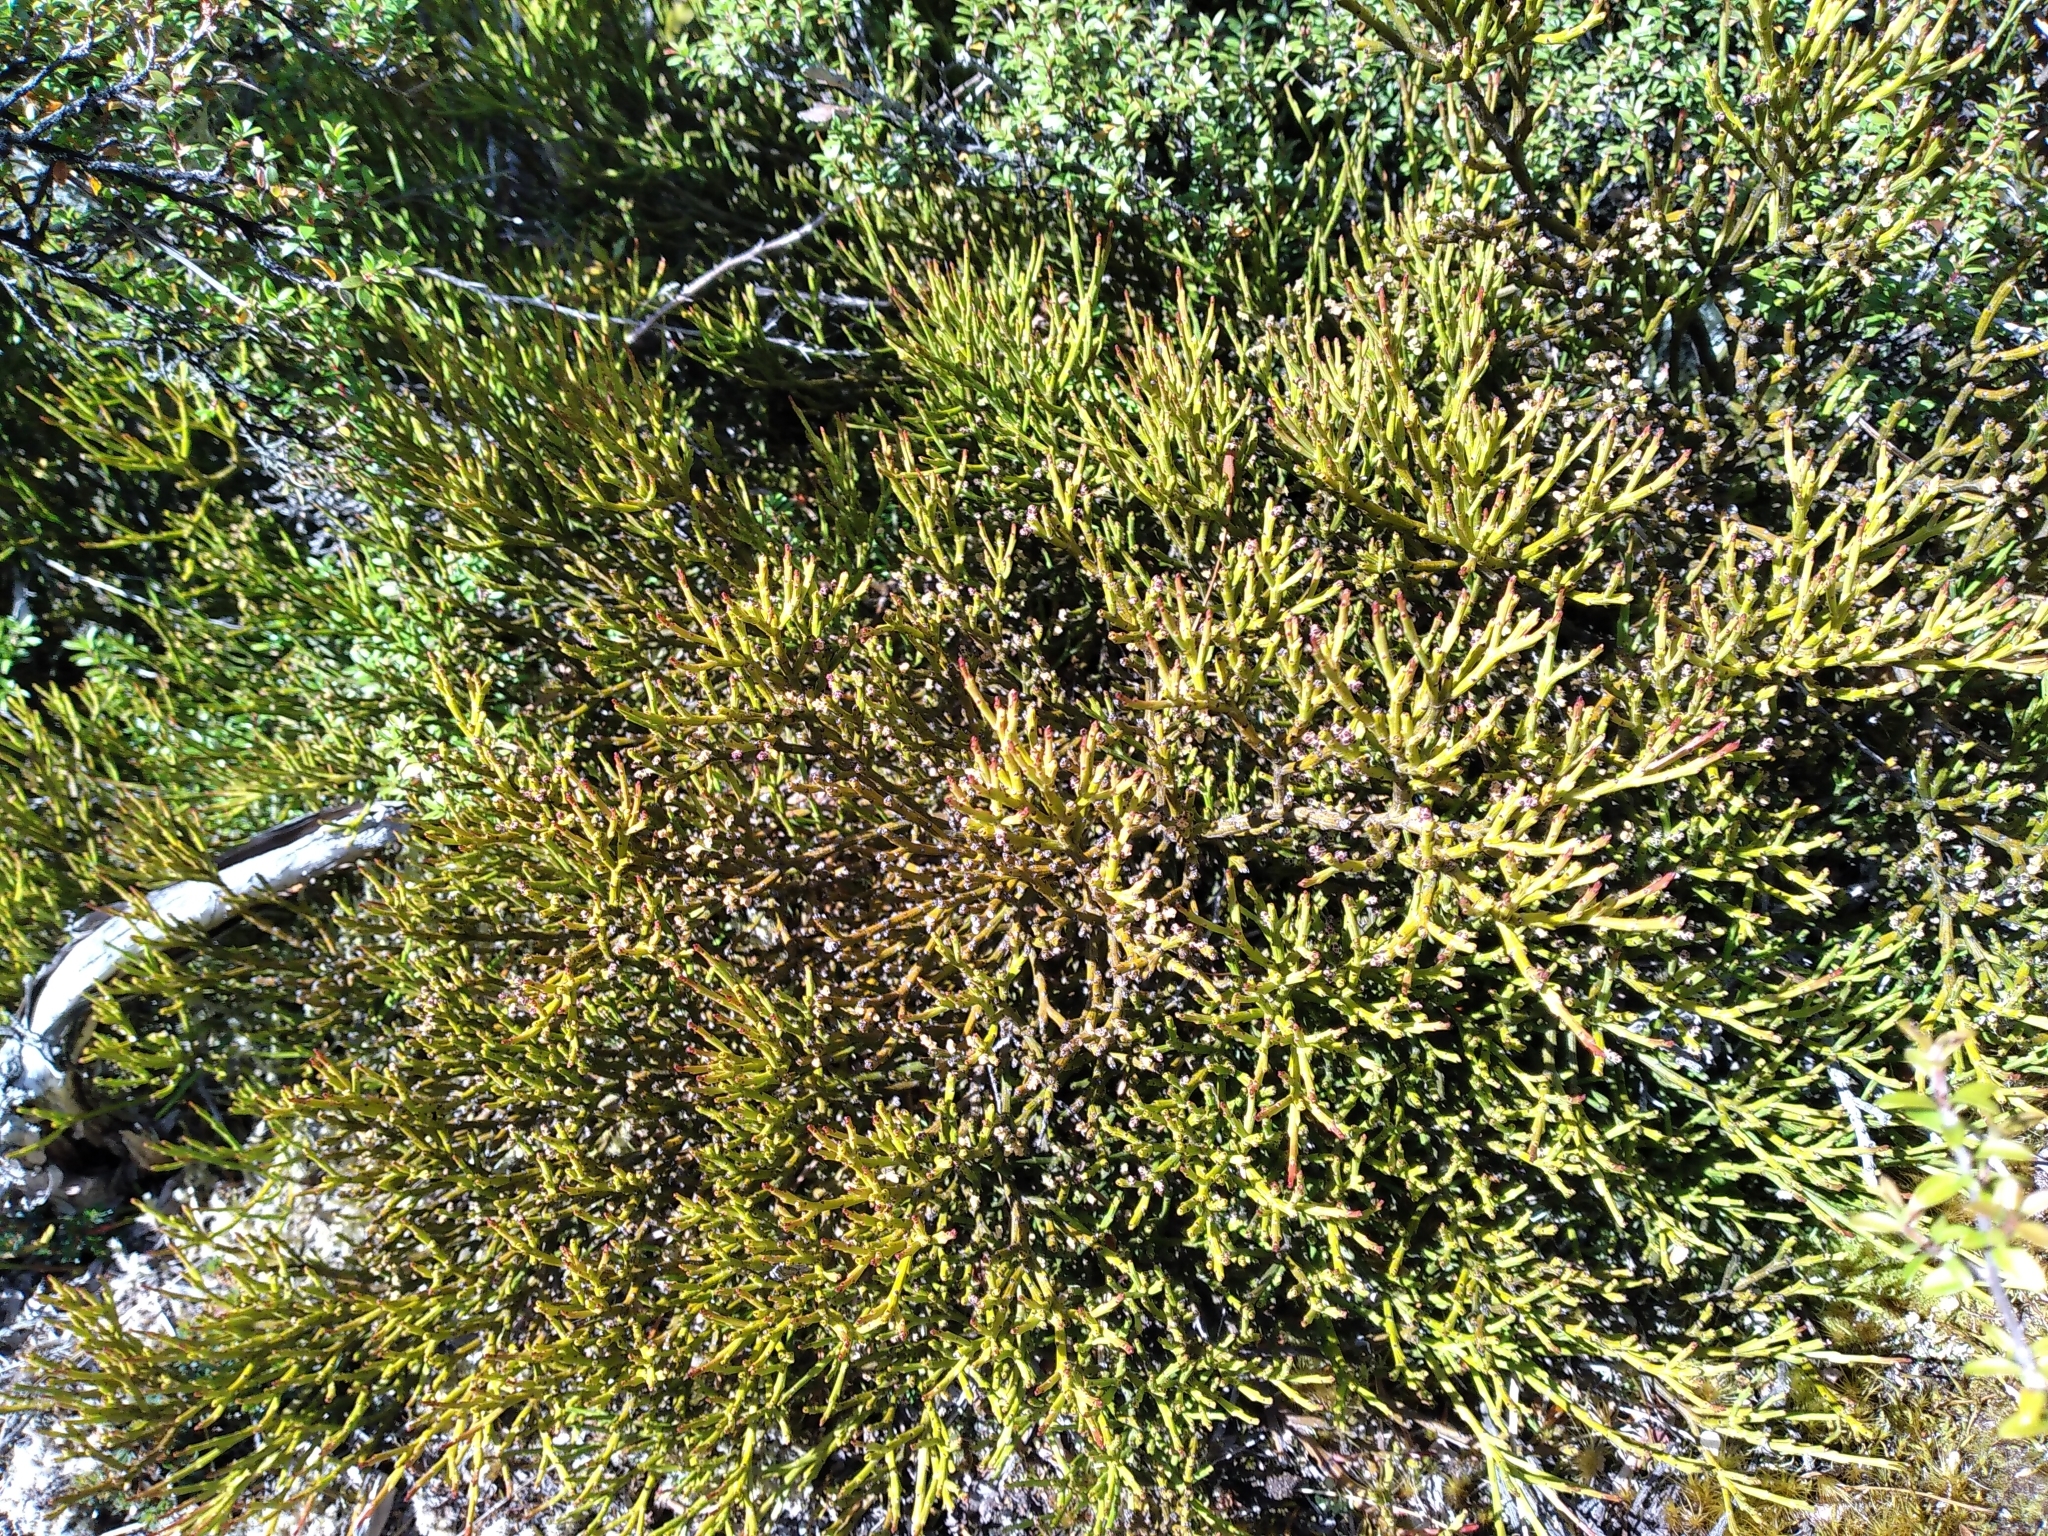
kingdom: Plantae
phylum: Tracheophyta
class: Magnoliopsida
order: Santalales
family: Santalaceae
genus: Exocarpos
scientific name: Exocarpos bidwillii
